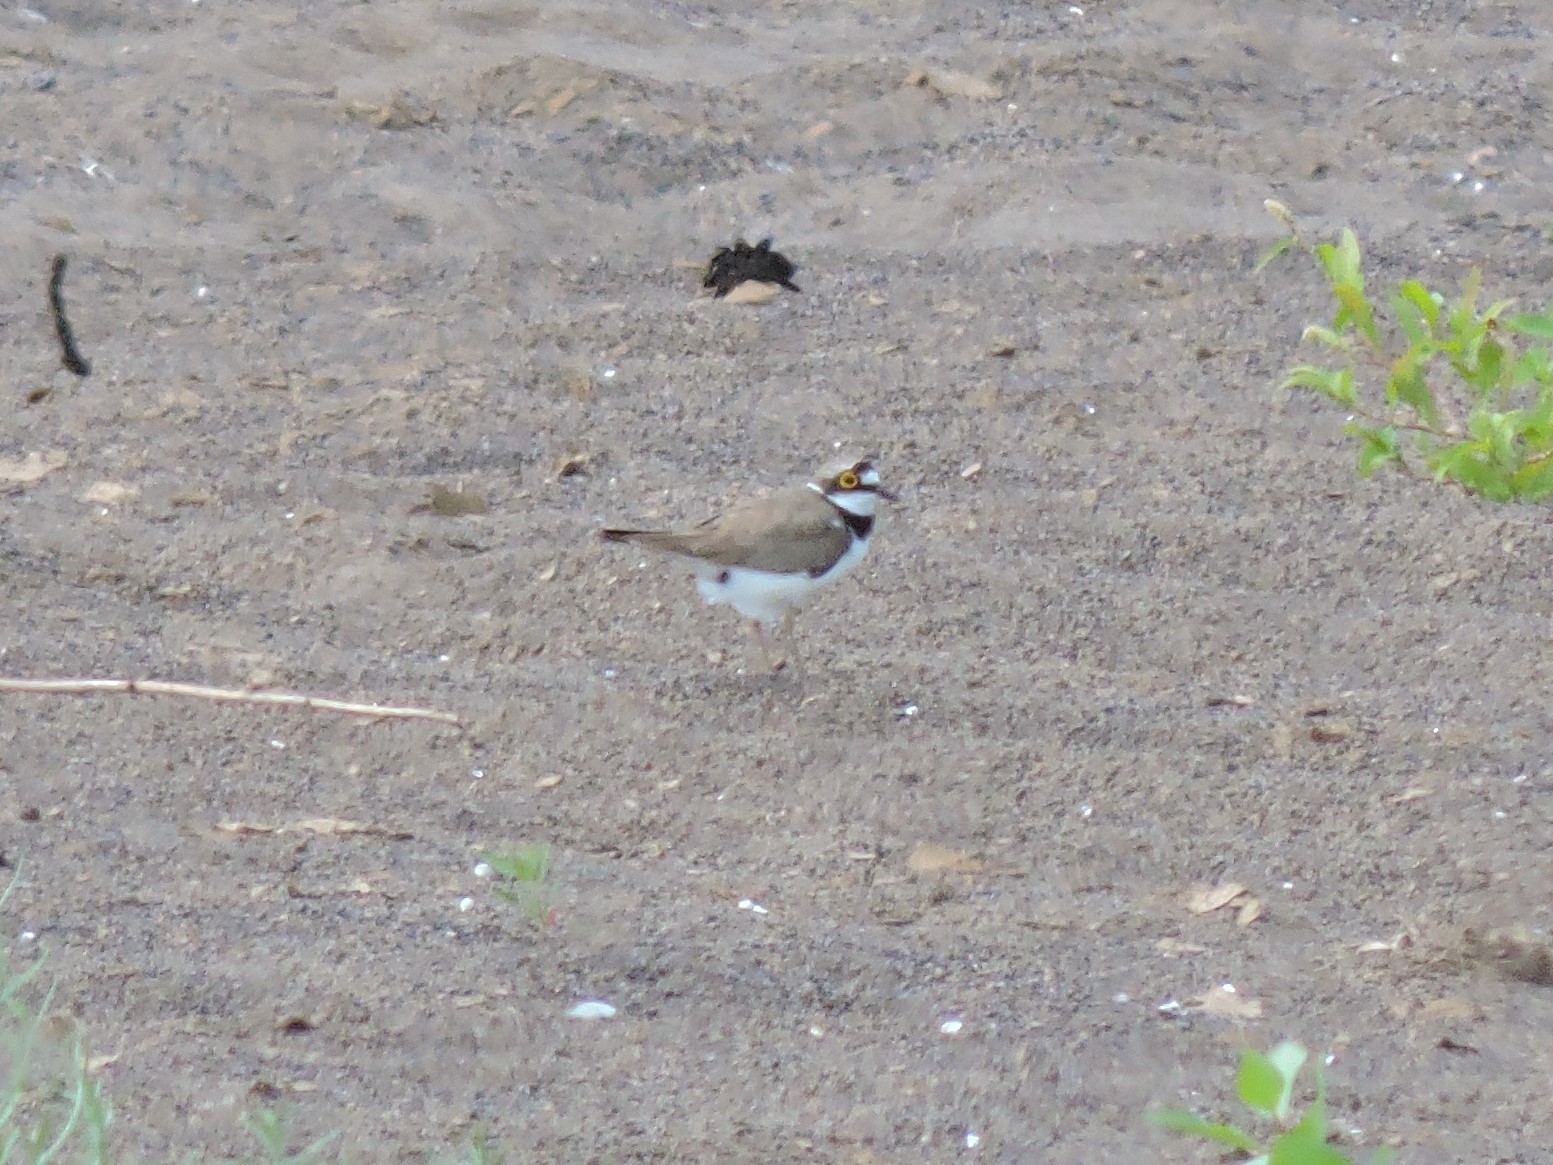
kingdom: Animalia
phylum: Chordata
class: Aves
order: Charadriiformes
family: Charadriidae
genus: Charadrius
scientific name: Charadrius dubius
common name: Little ringed plover
